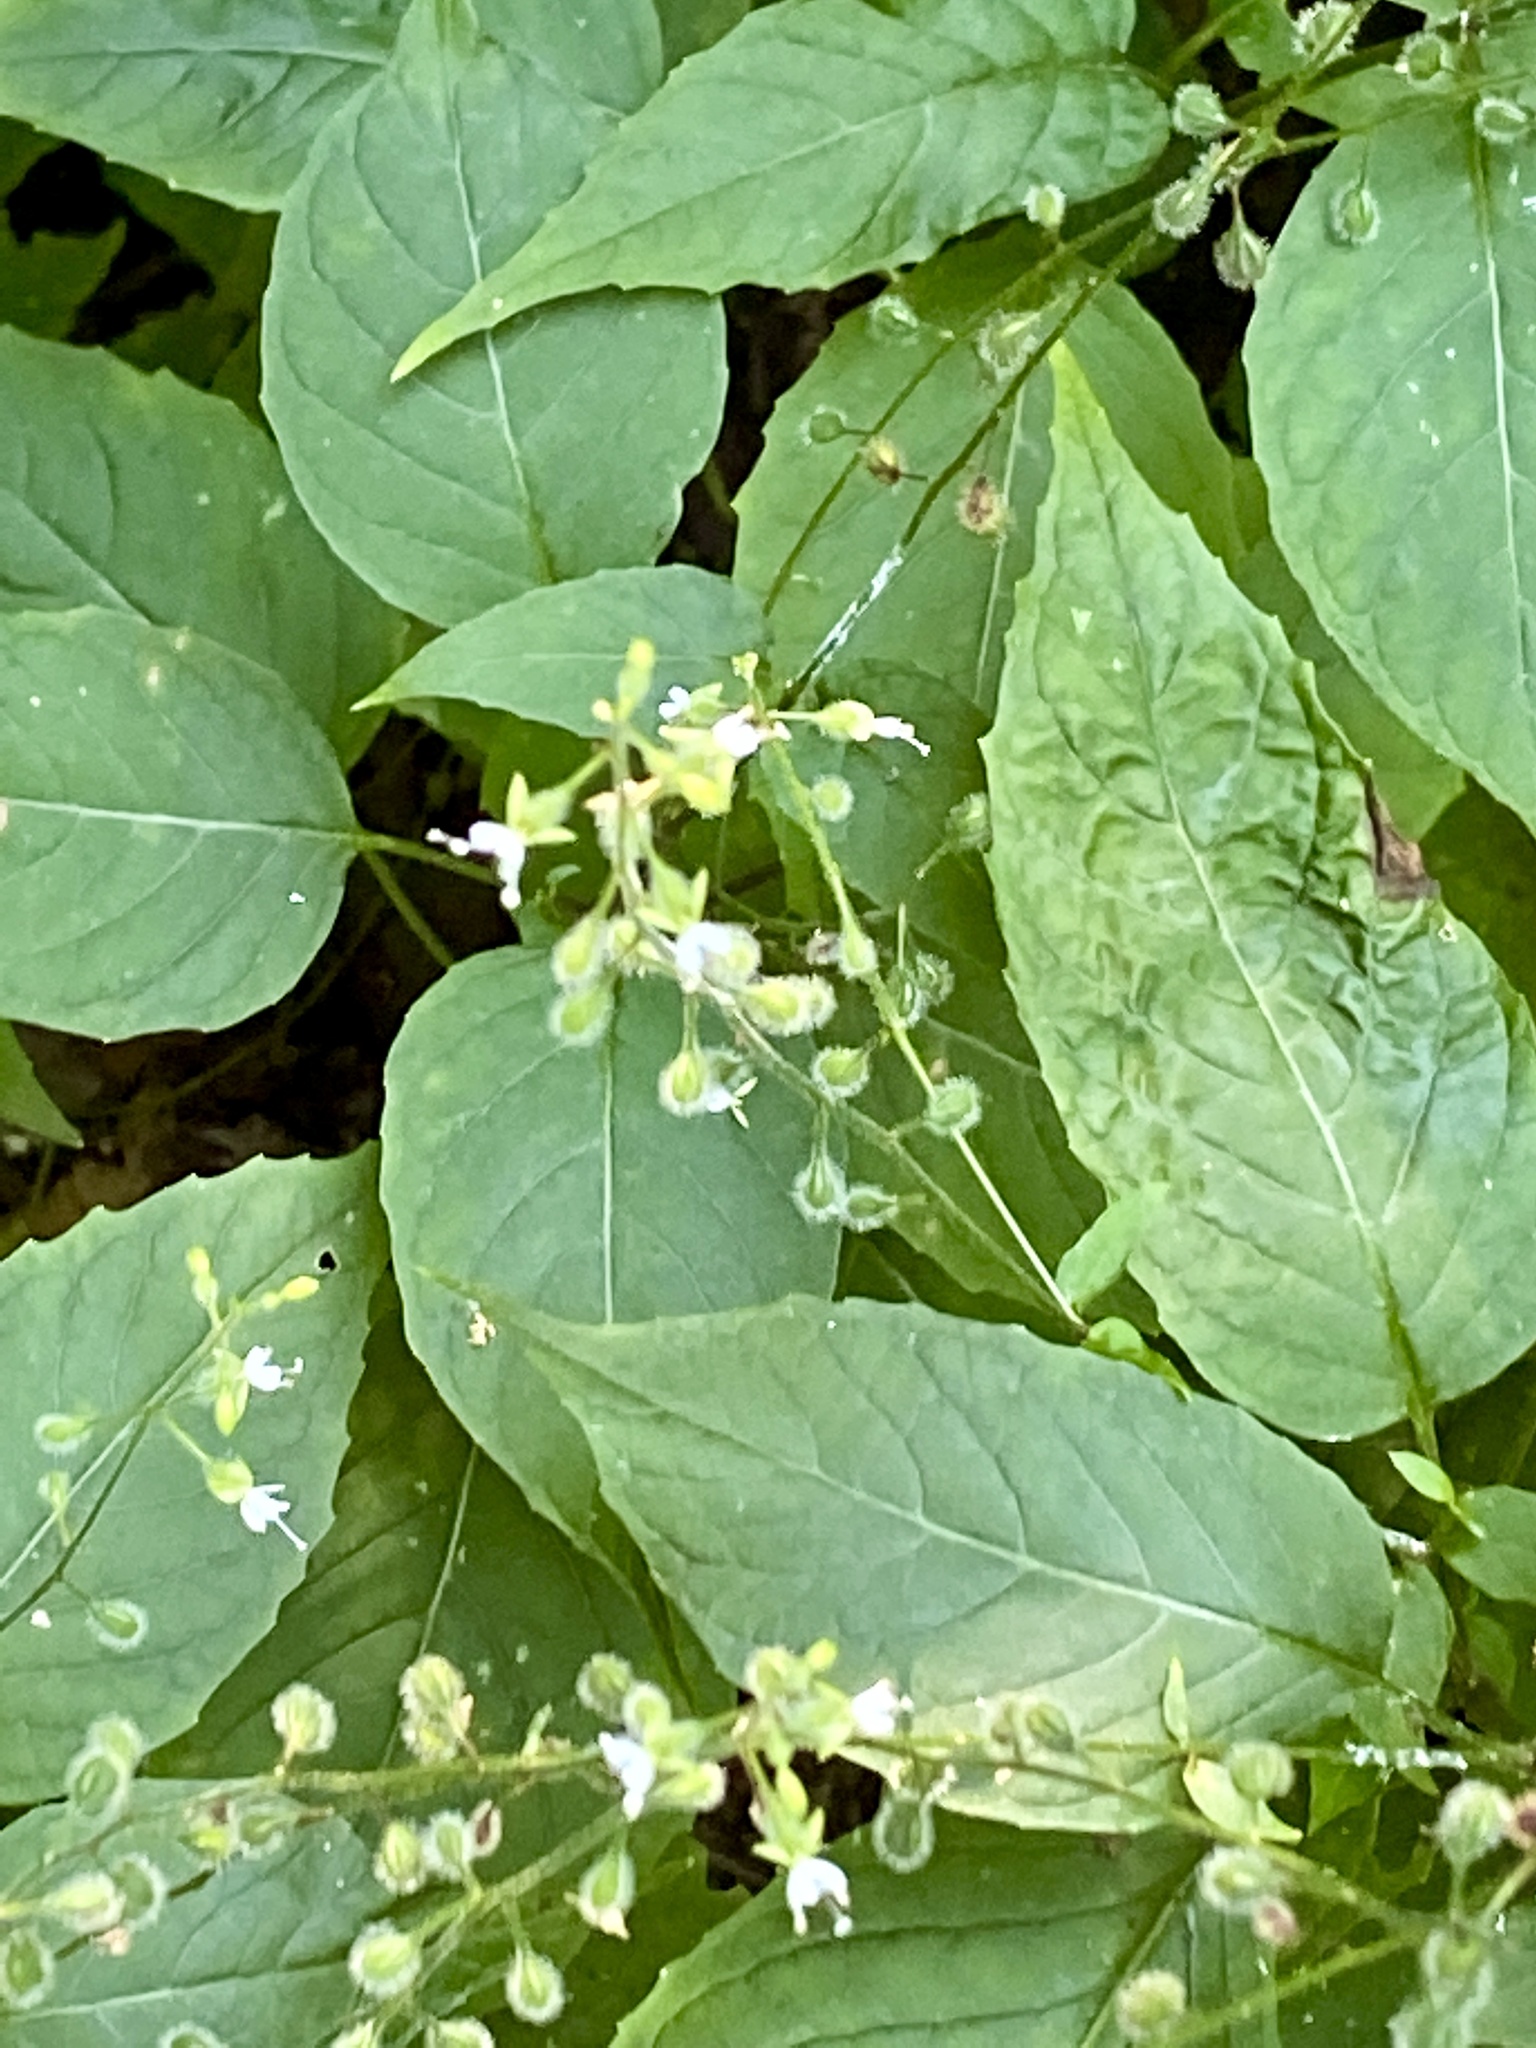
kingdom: Plantae
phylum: Tracheophyta
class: Magnoliopsida
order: Myrtales
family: Onagraceae
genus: Circaea
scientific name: Circaea canadensis
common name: Broad-leaved enchanter's nightshade
